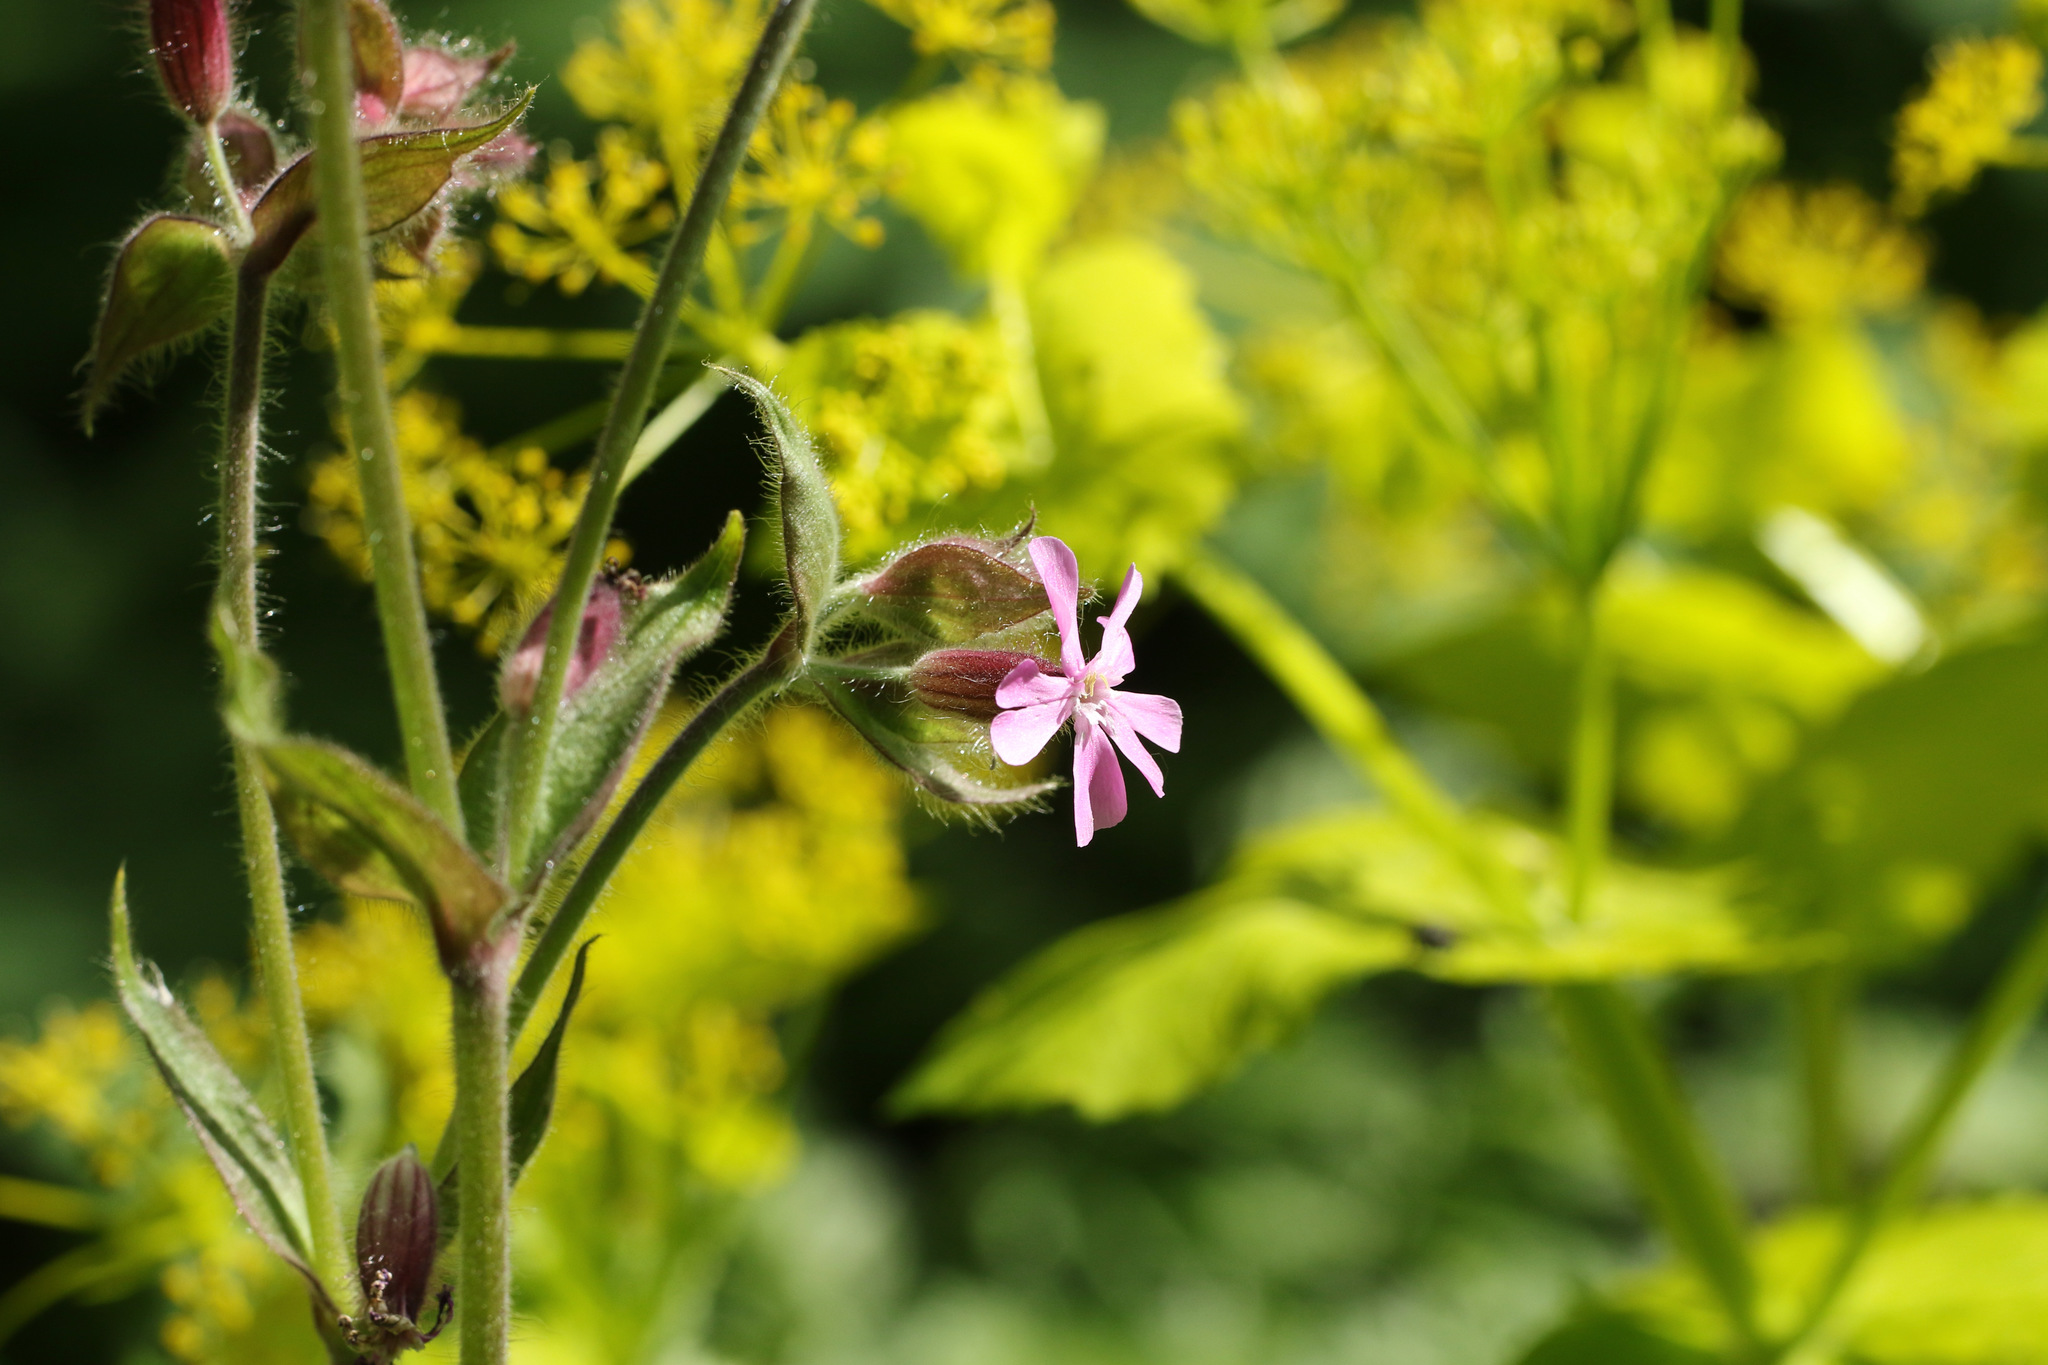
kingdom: Plantae
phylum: Tracheophyta
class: Magnoliopsida
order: Caryophyllales
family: Caryophyllaceae
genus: Silene
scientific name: Silene dioica
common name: Red campion
